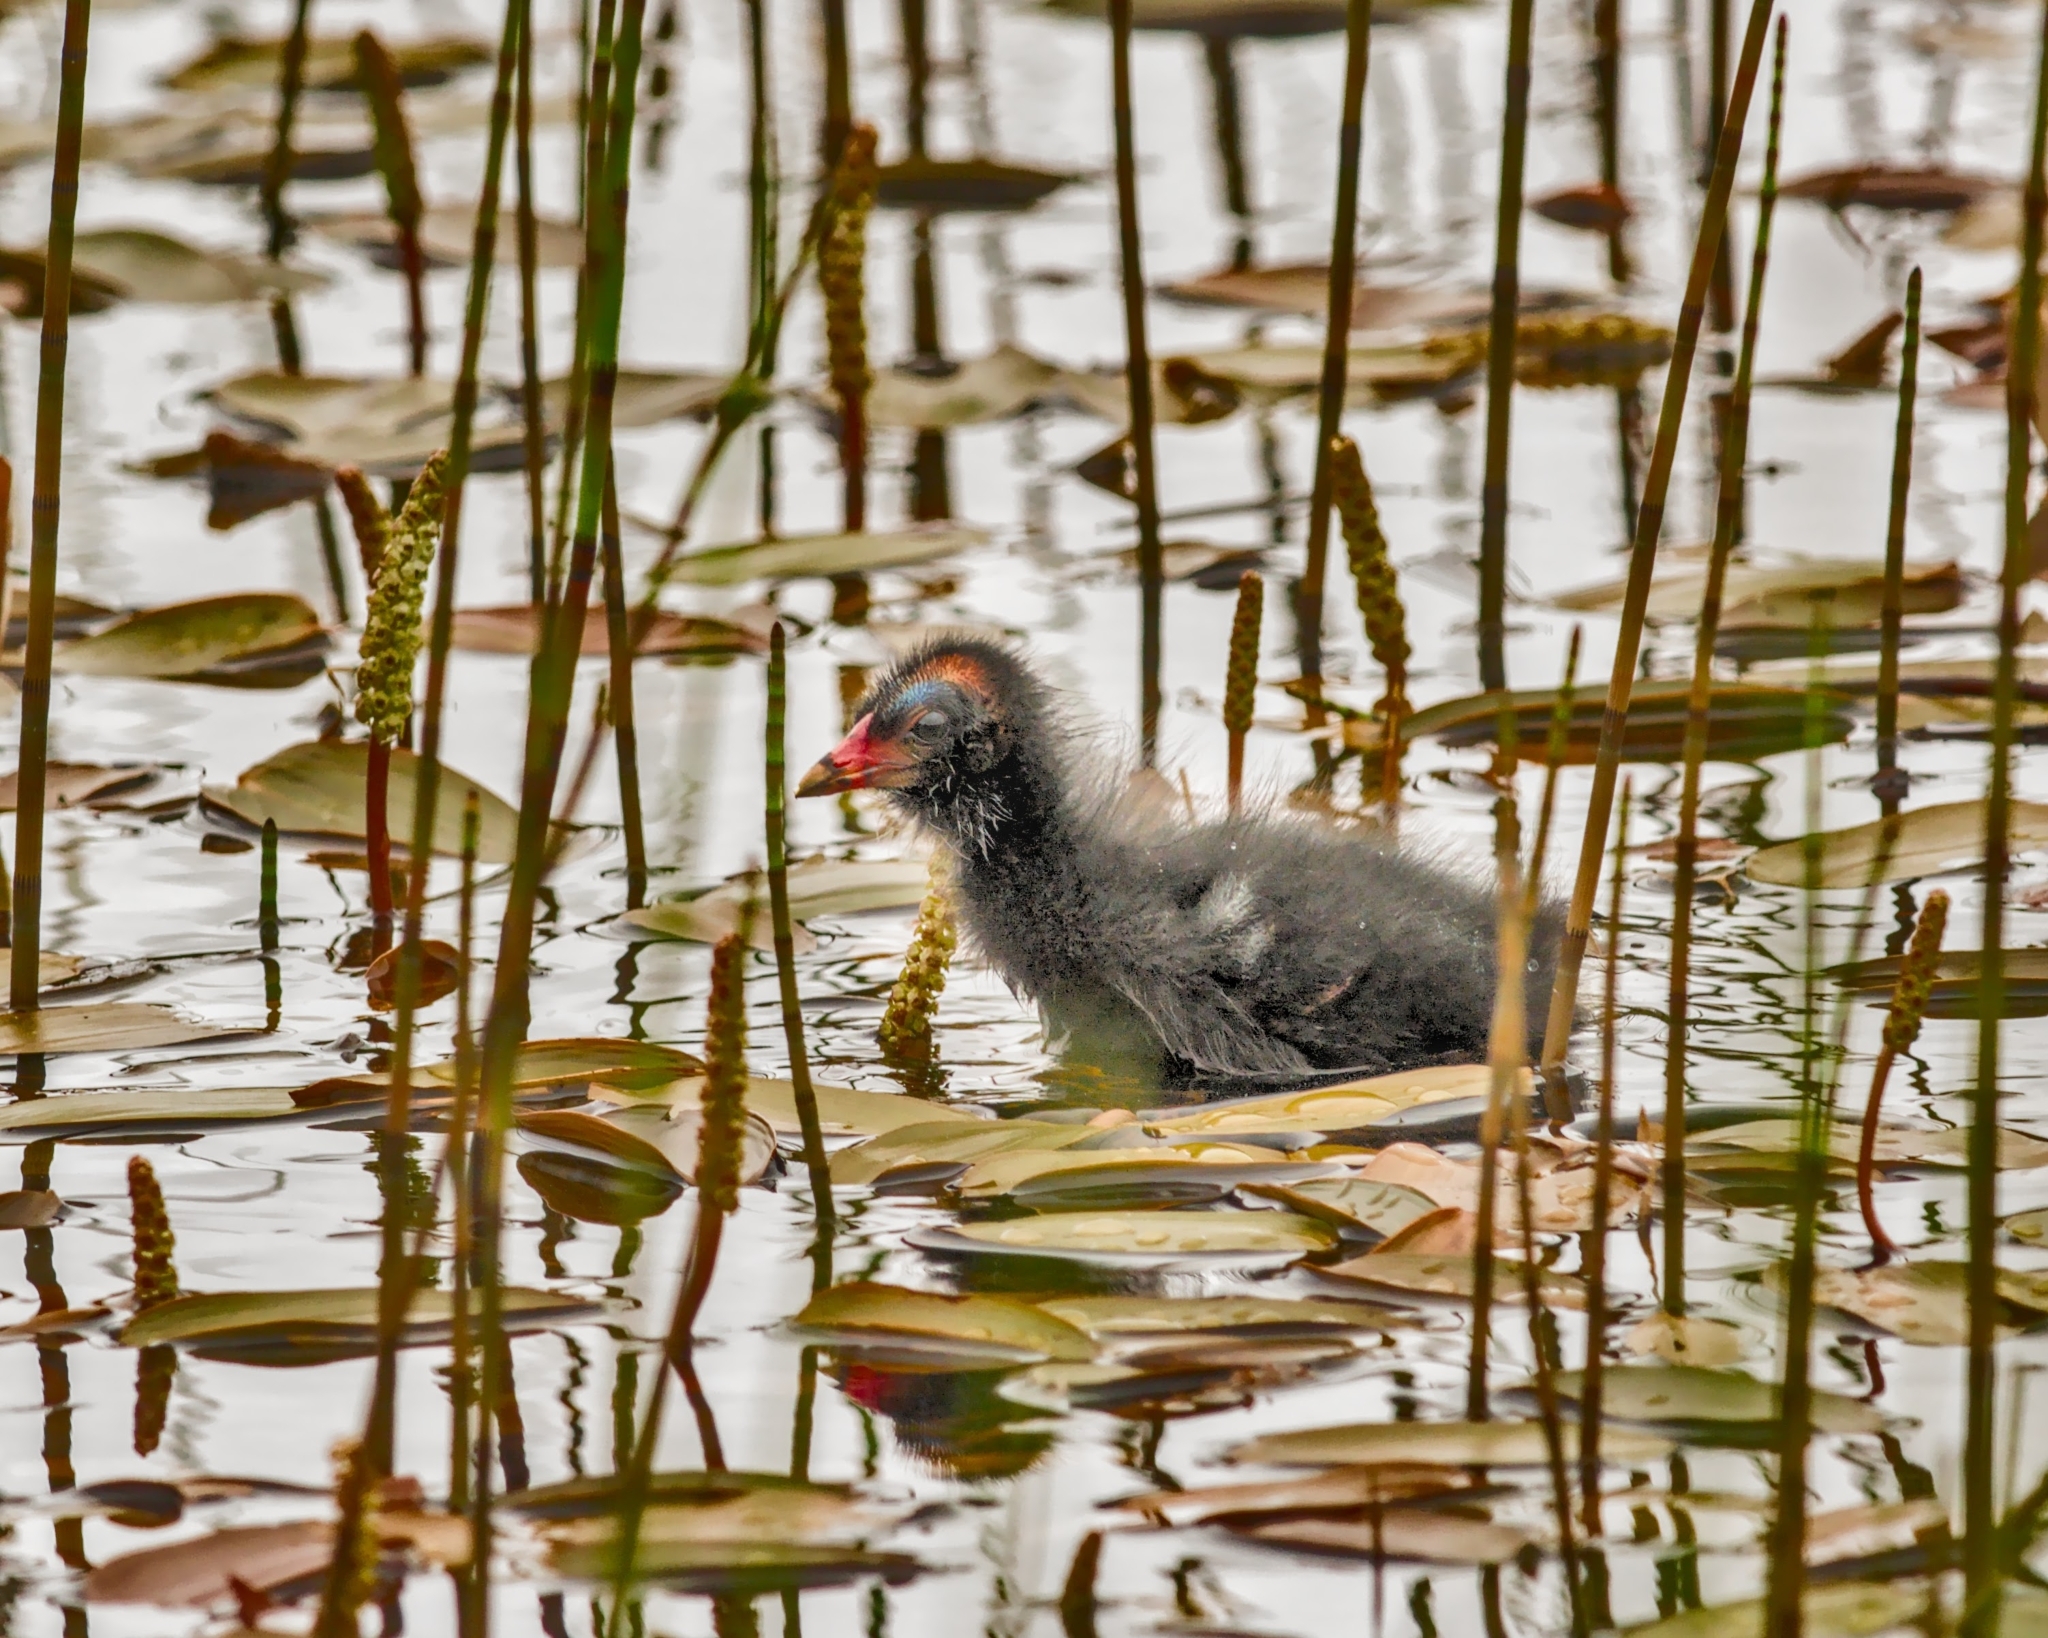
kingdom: Animalia
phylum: Chordata
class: Aves
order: Gruiformes
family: Rallidae
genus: Gallinula
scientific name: Gallinula chloropus
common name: Common moorhen
